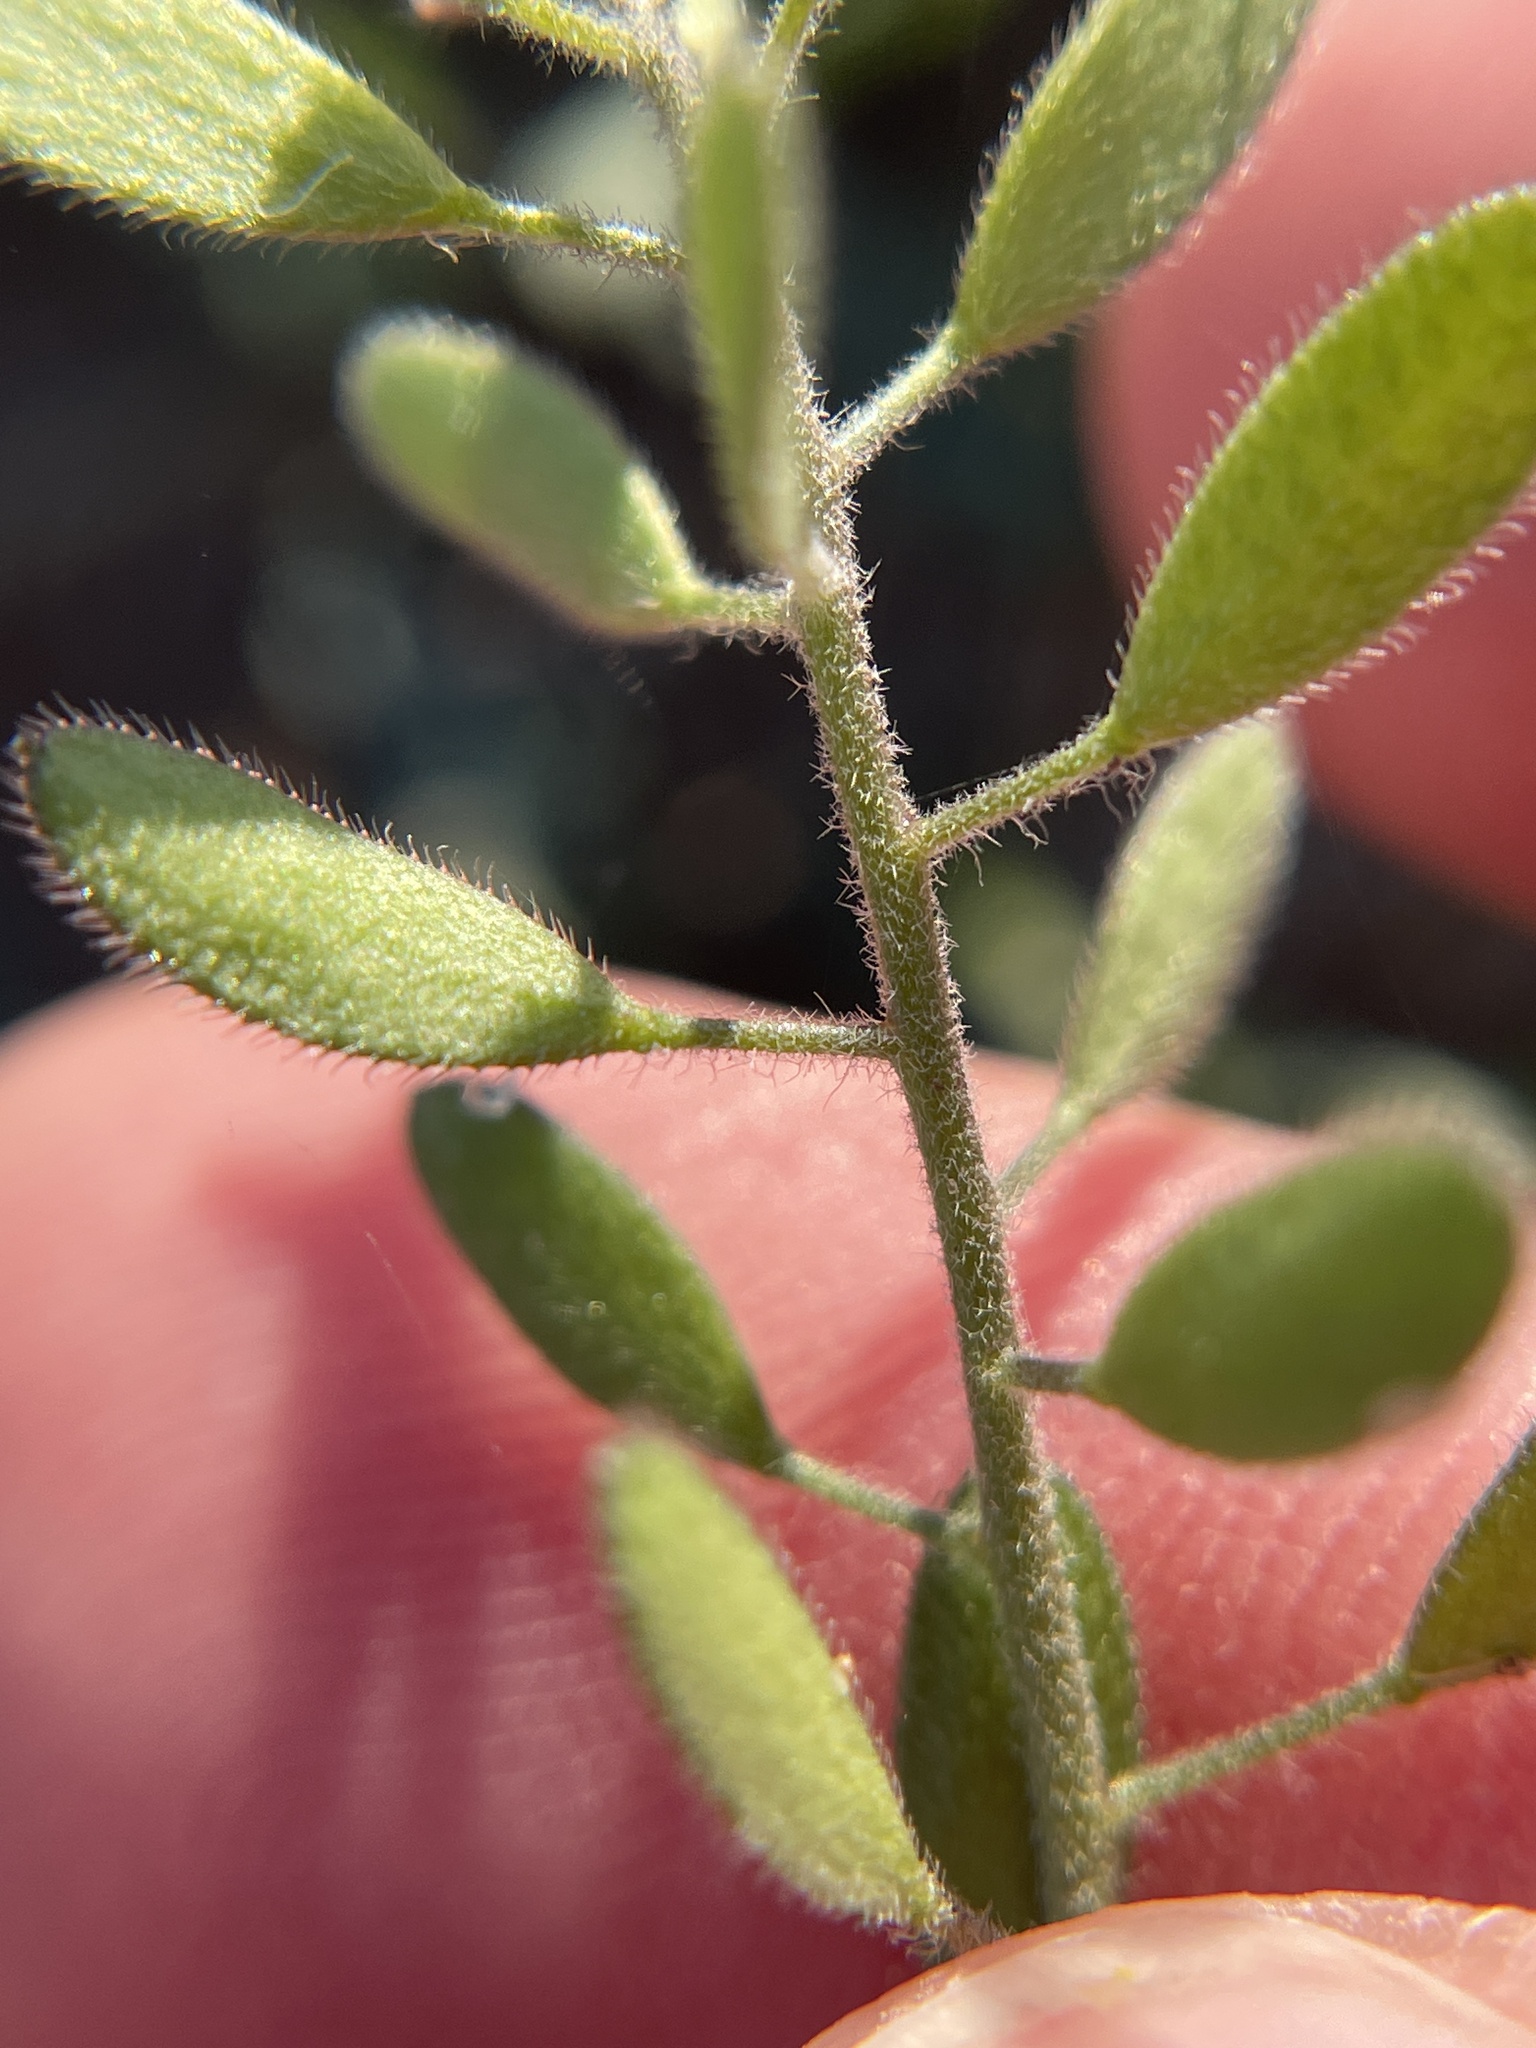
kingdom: Plantae
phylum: Tracheophyta
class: Magnoliopsida
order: Brassicales
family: Brassicaceae
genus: Tomostima
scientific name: Tomostima platycarpa
